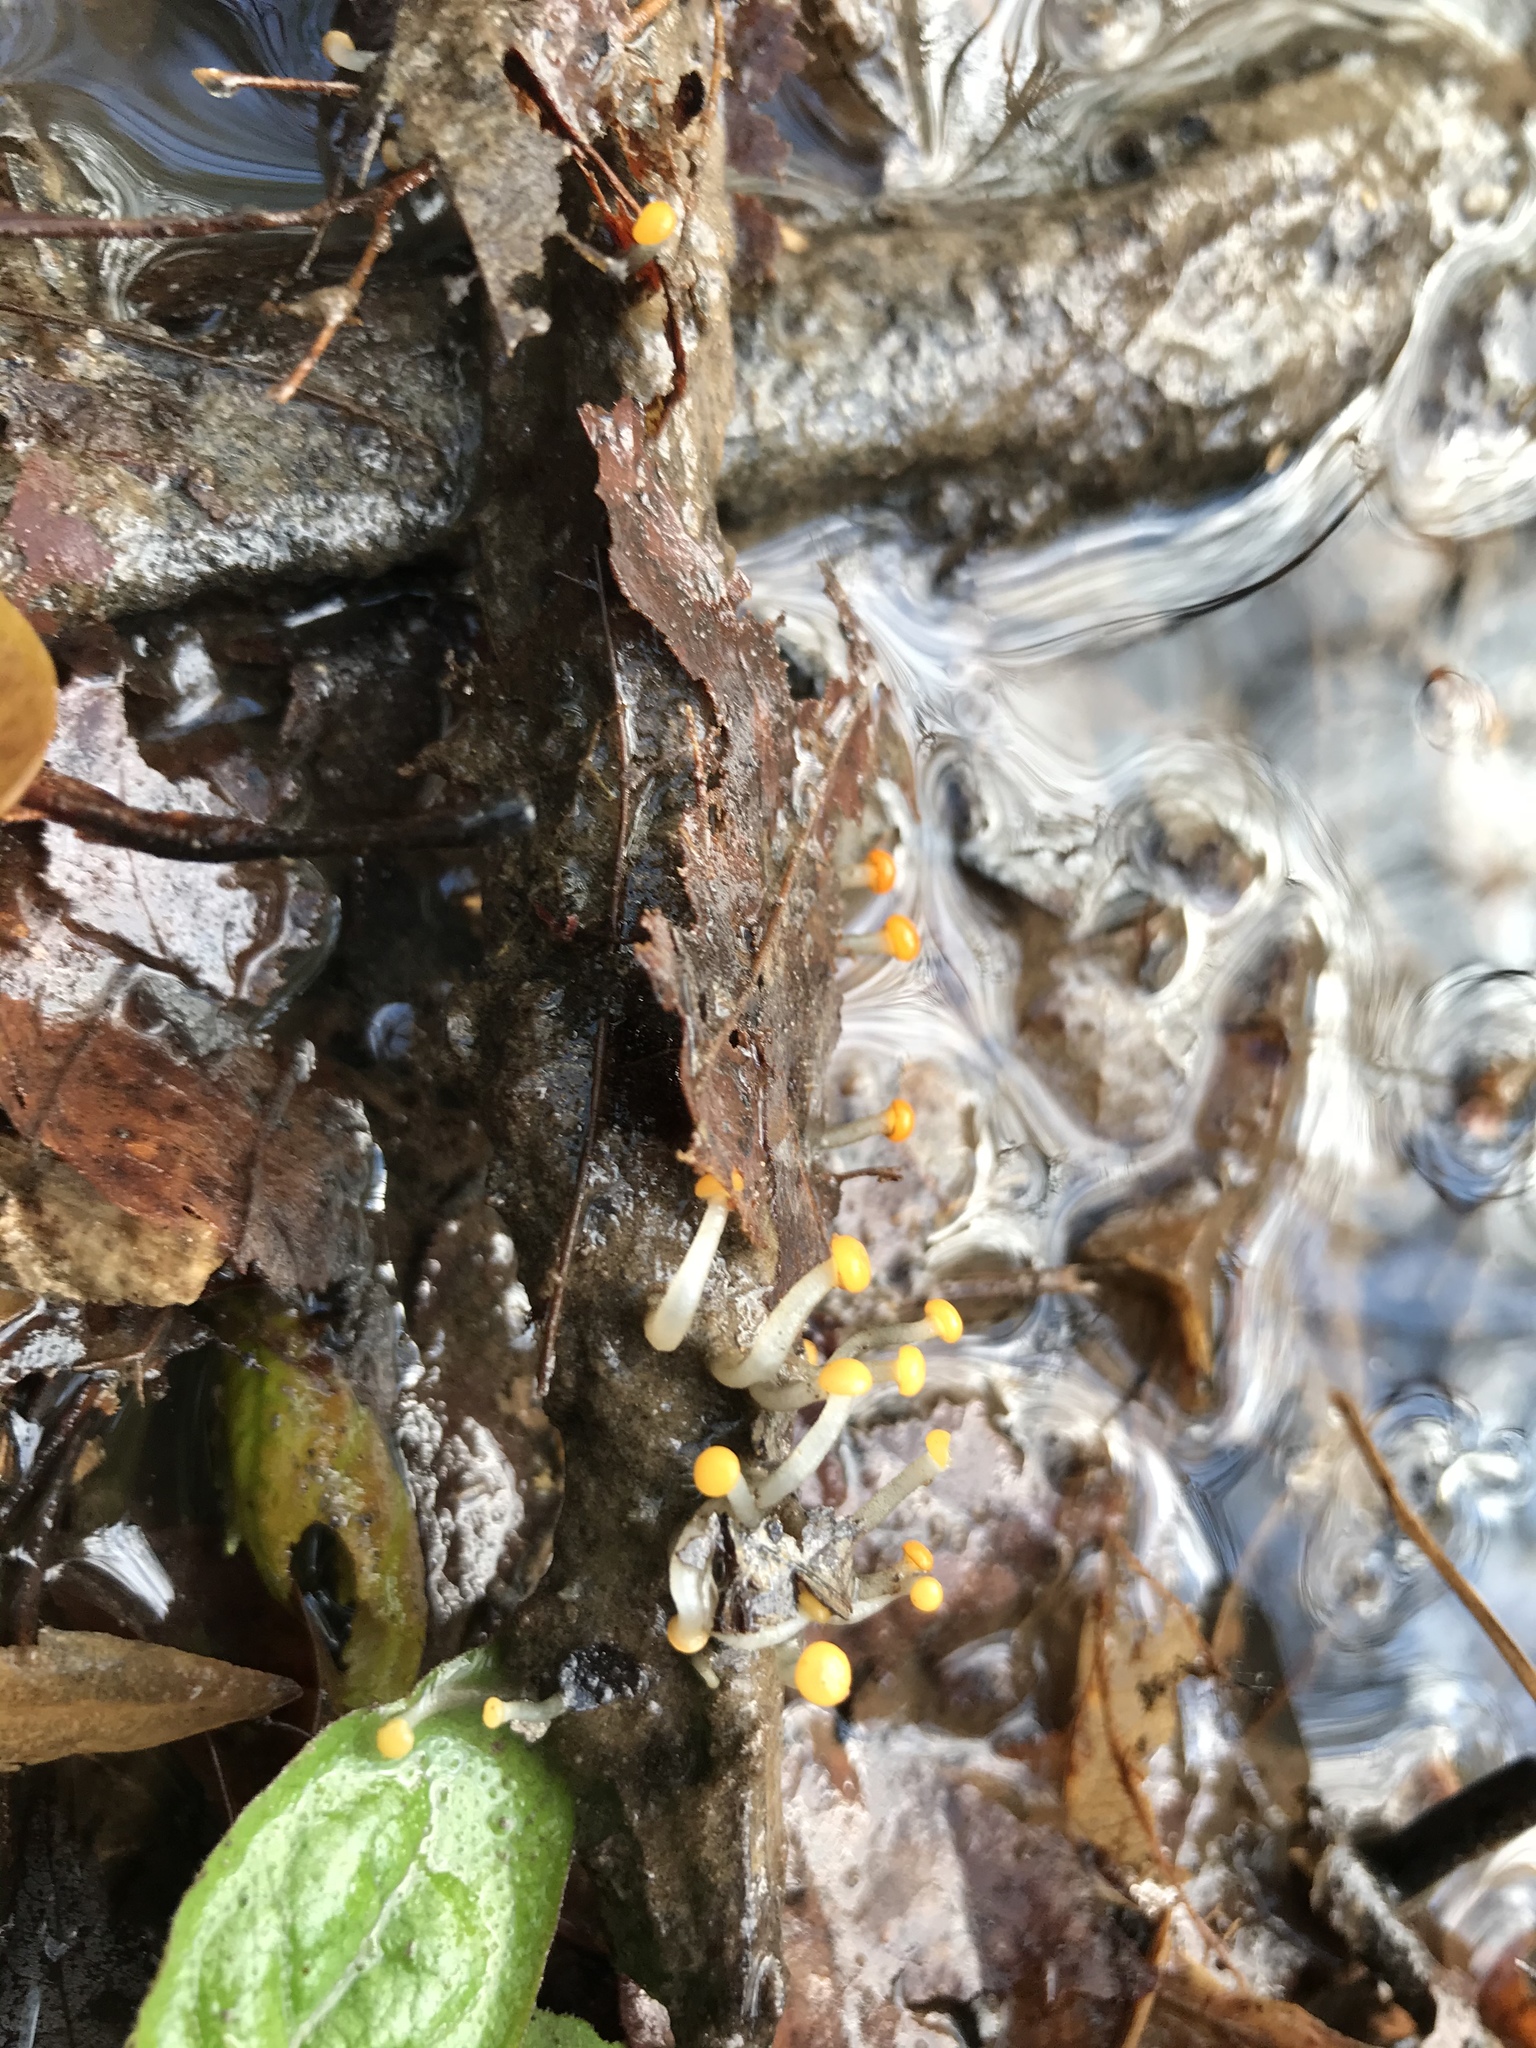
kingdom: Fungi
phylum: Ascomycota
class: Leotiomycetes
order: Helotiales
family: Vibrisseaceae
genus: Vibrissea
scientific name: Vibrissea truncorum
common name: Stream beacon
